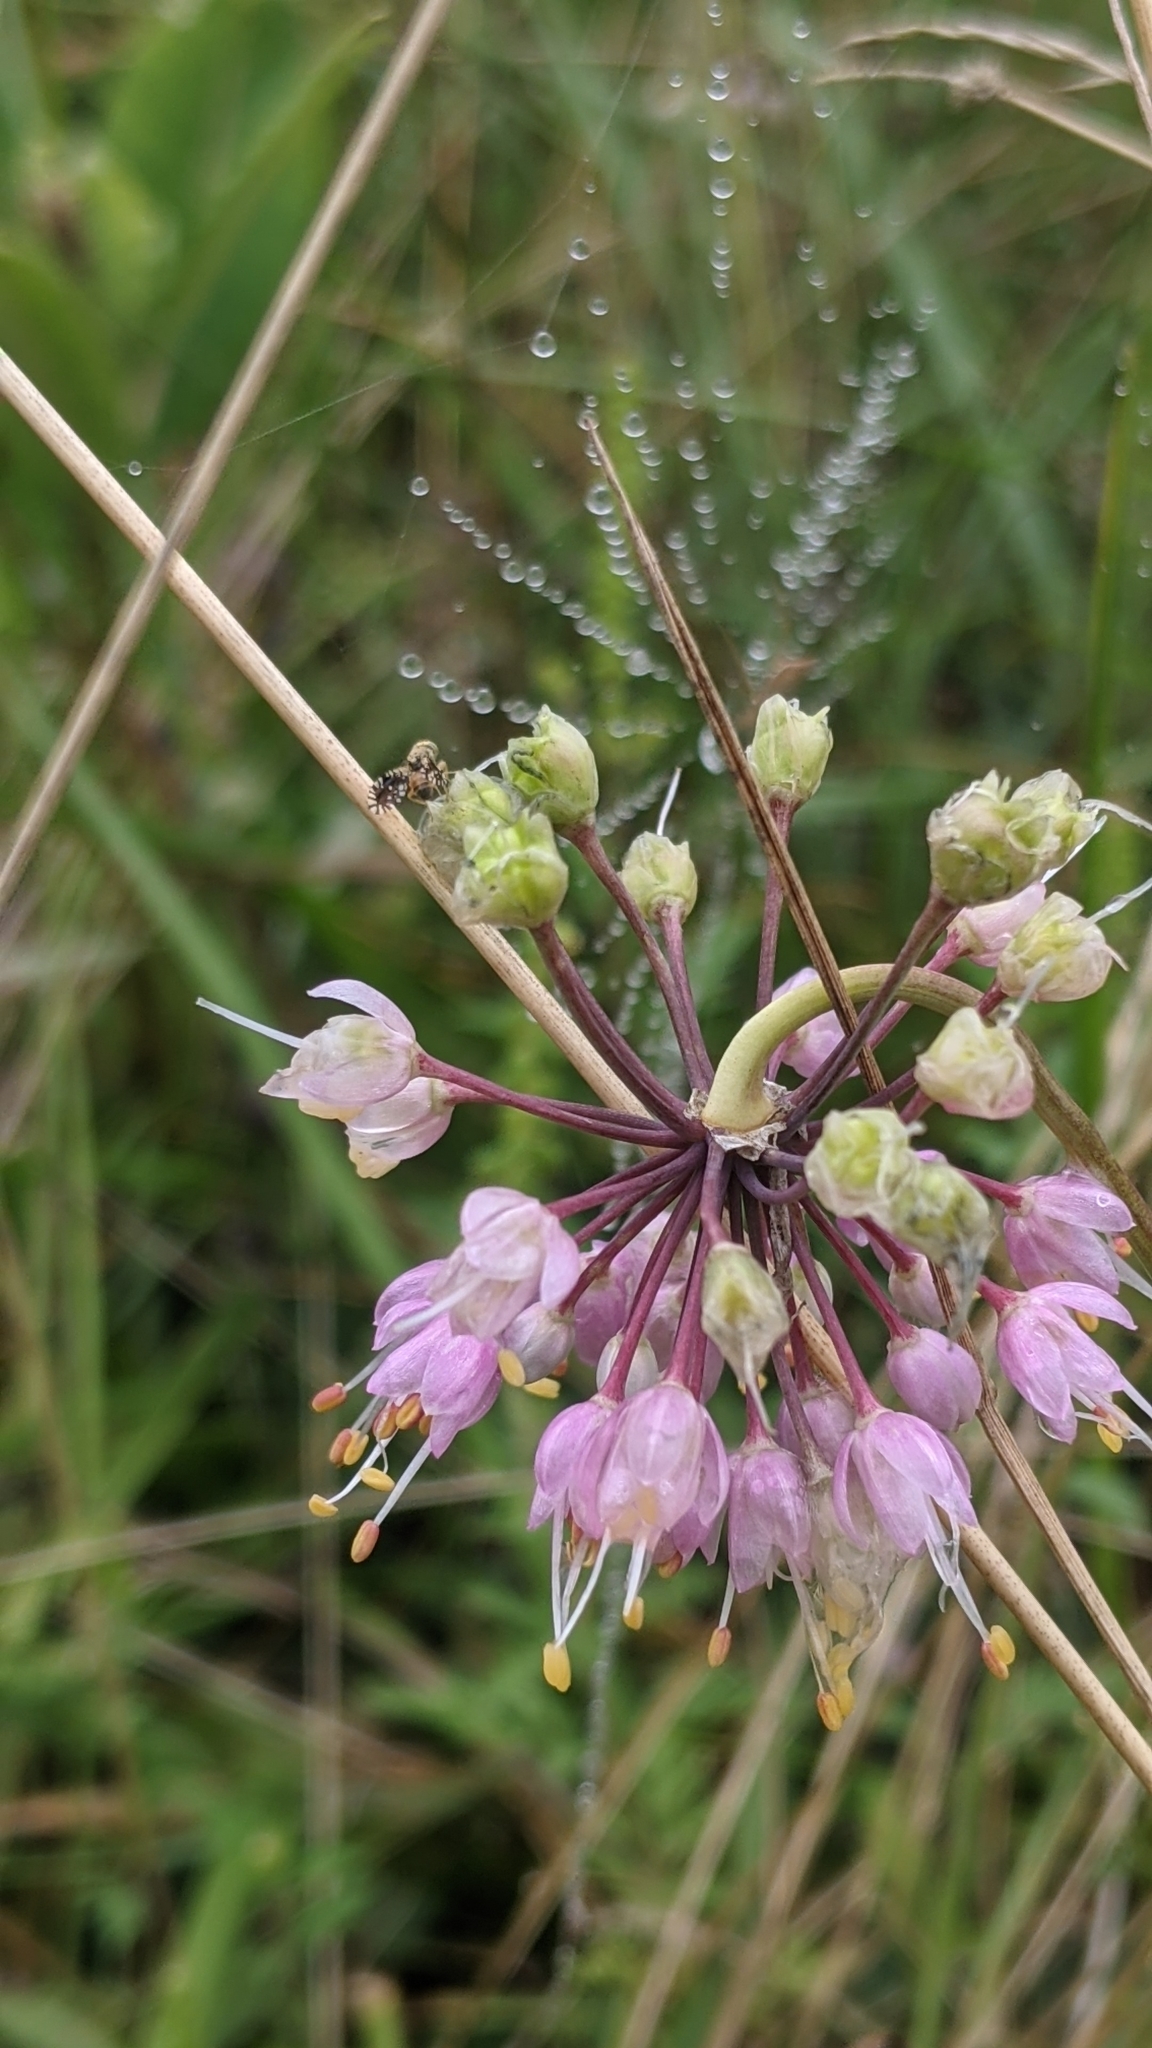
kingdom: Plantae
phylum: Tracheophyta
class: Liliopsida
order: Asparagales
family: Amaryllidaceae
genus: Allium
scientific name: Allium cernuum
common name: Nodding onion
